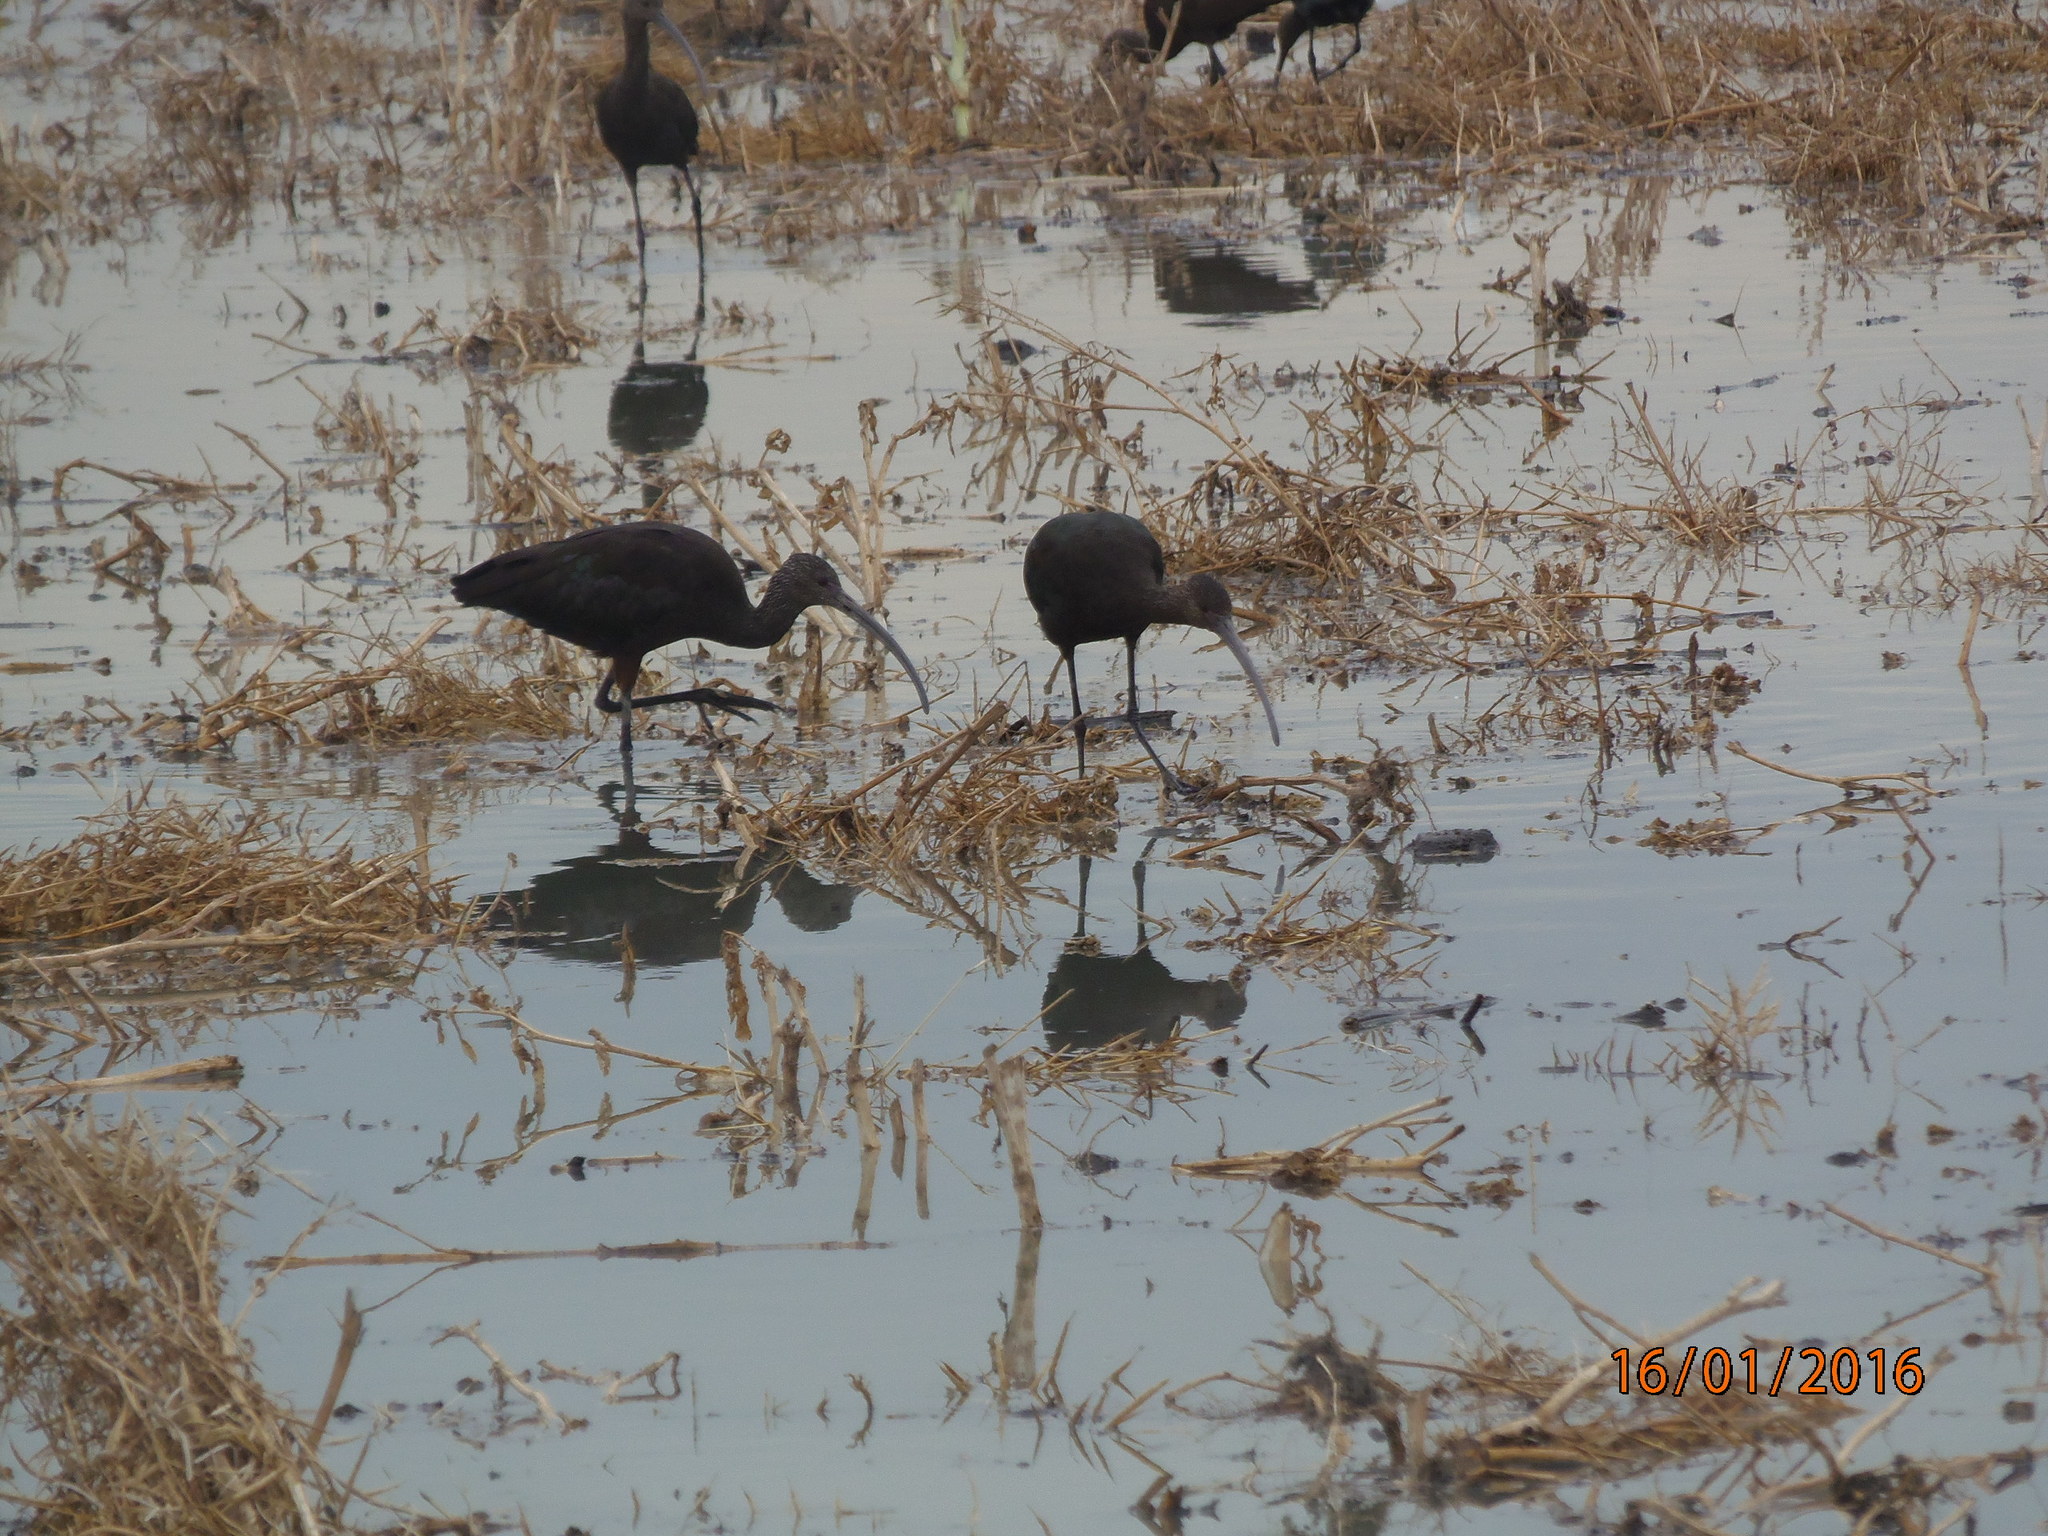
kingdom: Animalia
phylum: Chordata
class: Aves
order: Pelecaniformes
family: Threskiornithidae
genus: Plegadis
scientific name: Plegadis chihi
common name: White-faced ibis
